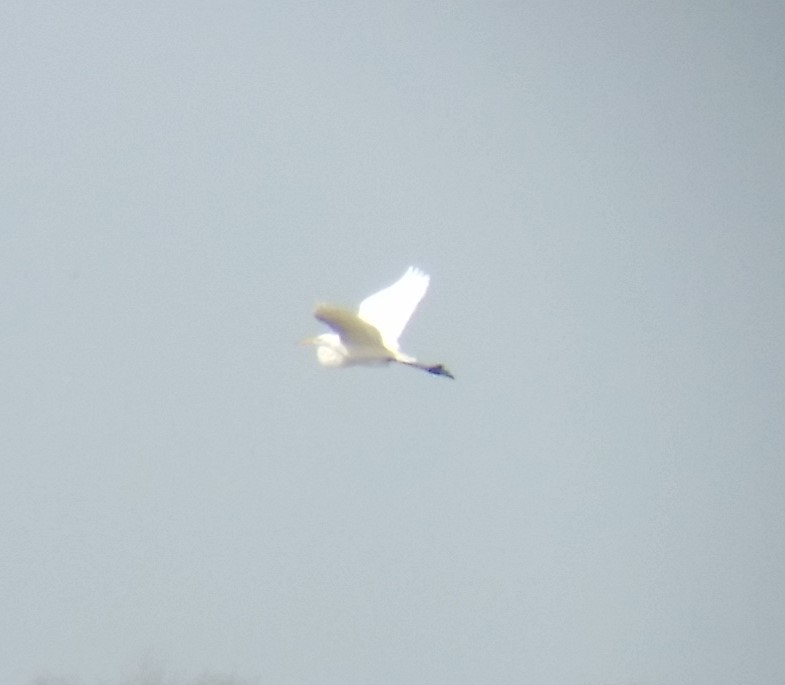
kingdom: Animalia
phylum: Chordata
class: Aves
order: Pelecaniformes
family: Ardeidae
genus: Ardea
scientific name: Ardea alba
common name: Great egret
